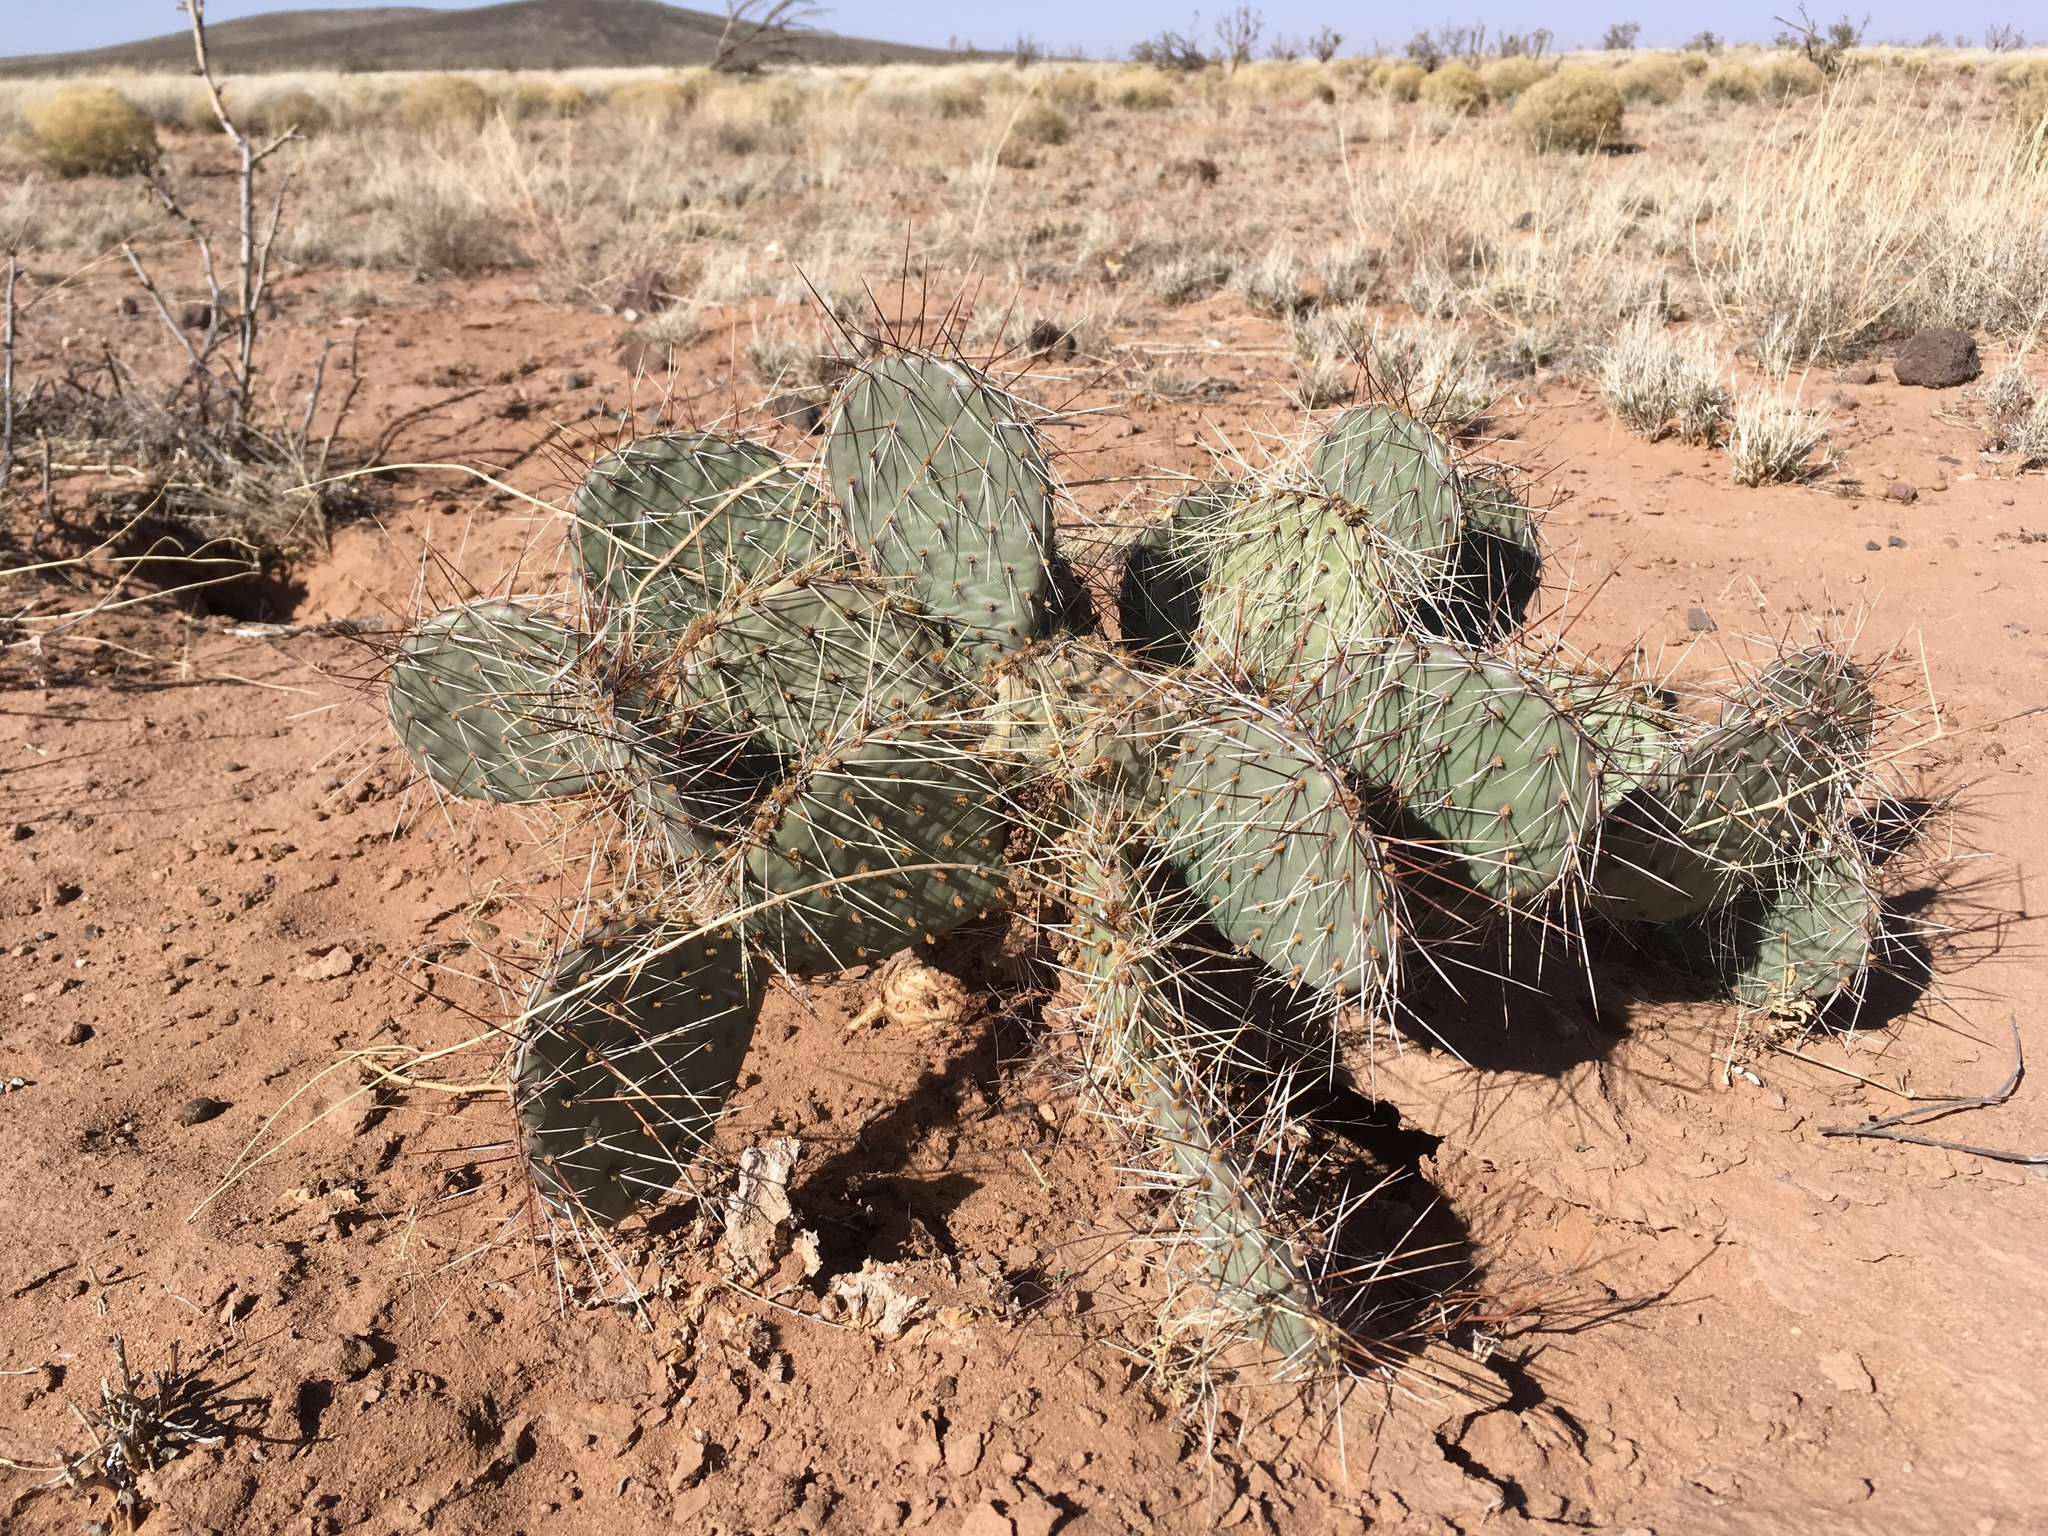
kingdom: Plantae
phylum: Tracheophyta
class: Magnoliopsida
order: Caryophyllales
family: Cactaceae
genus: Opuntia
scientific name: Opuntia macrorhiza
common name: Grassland pricklypear
